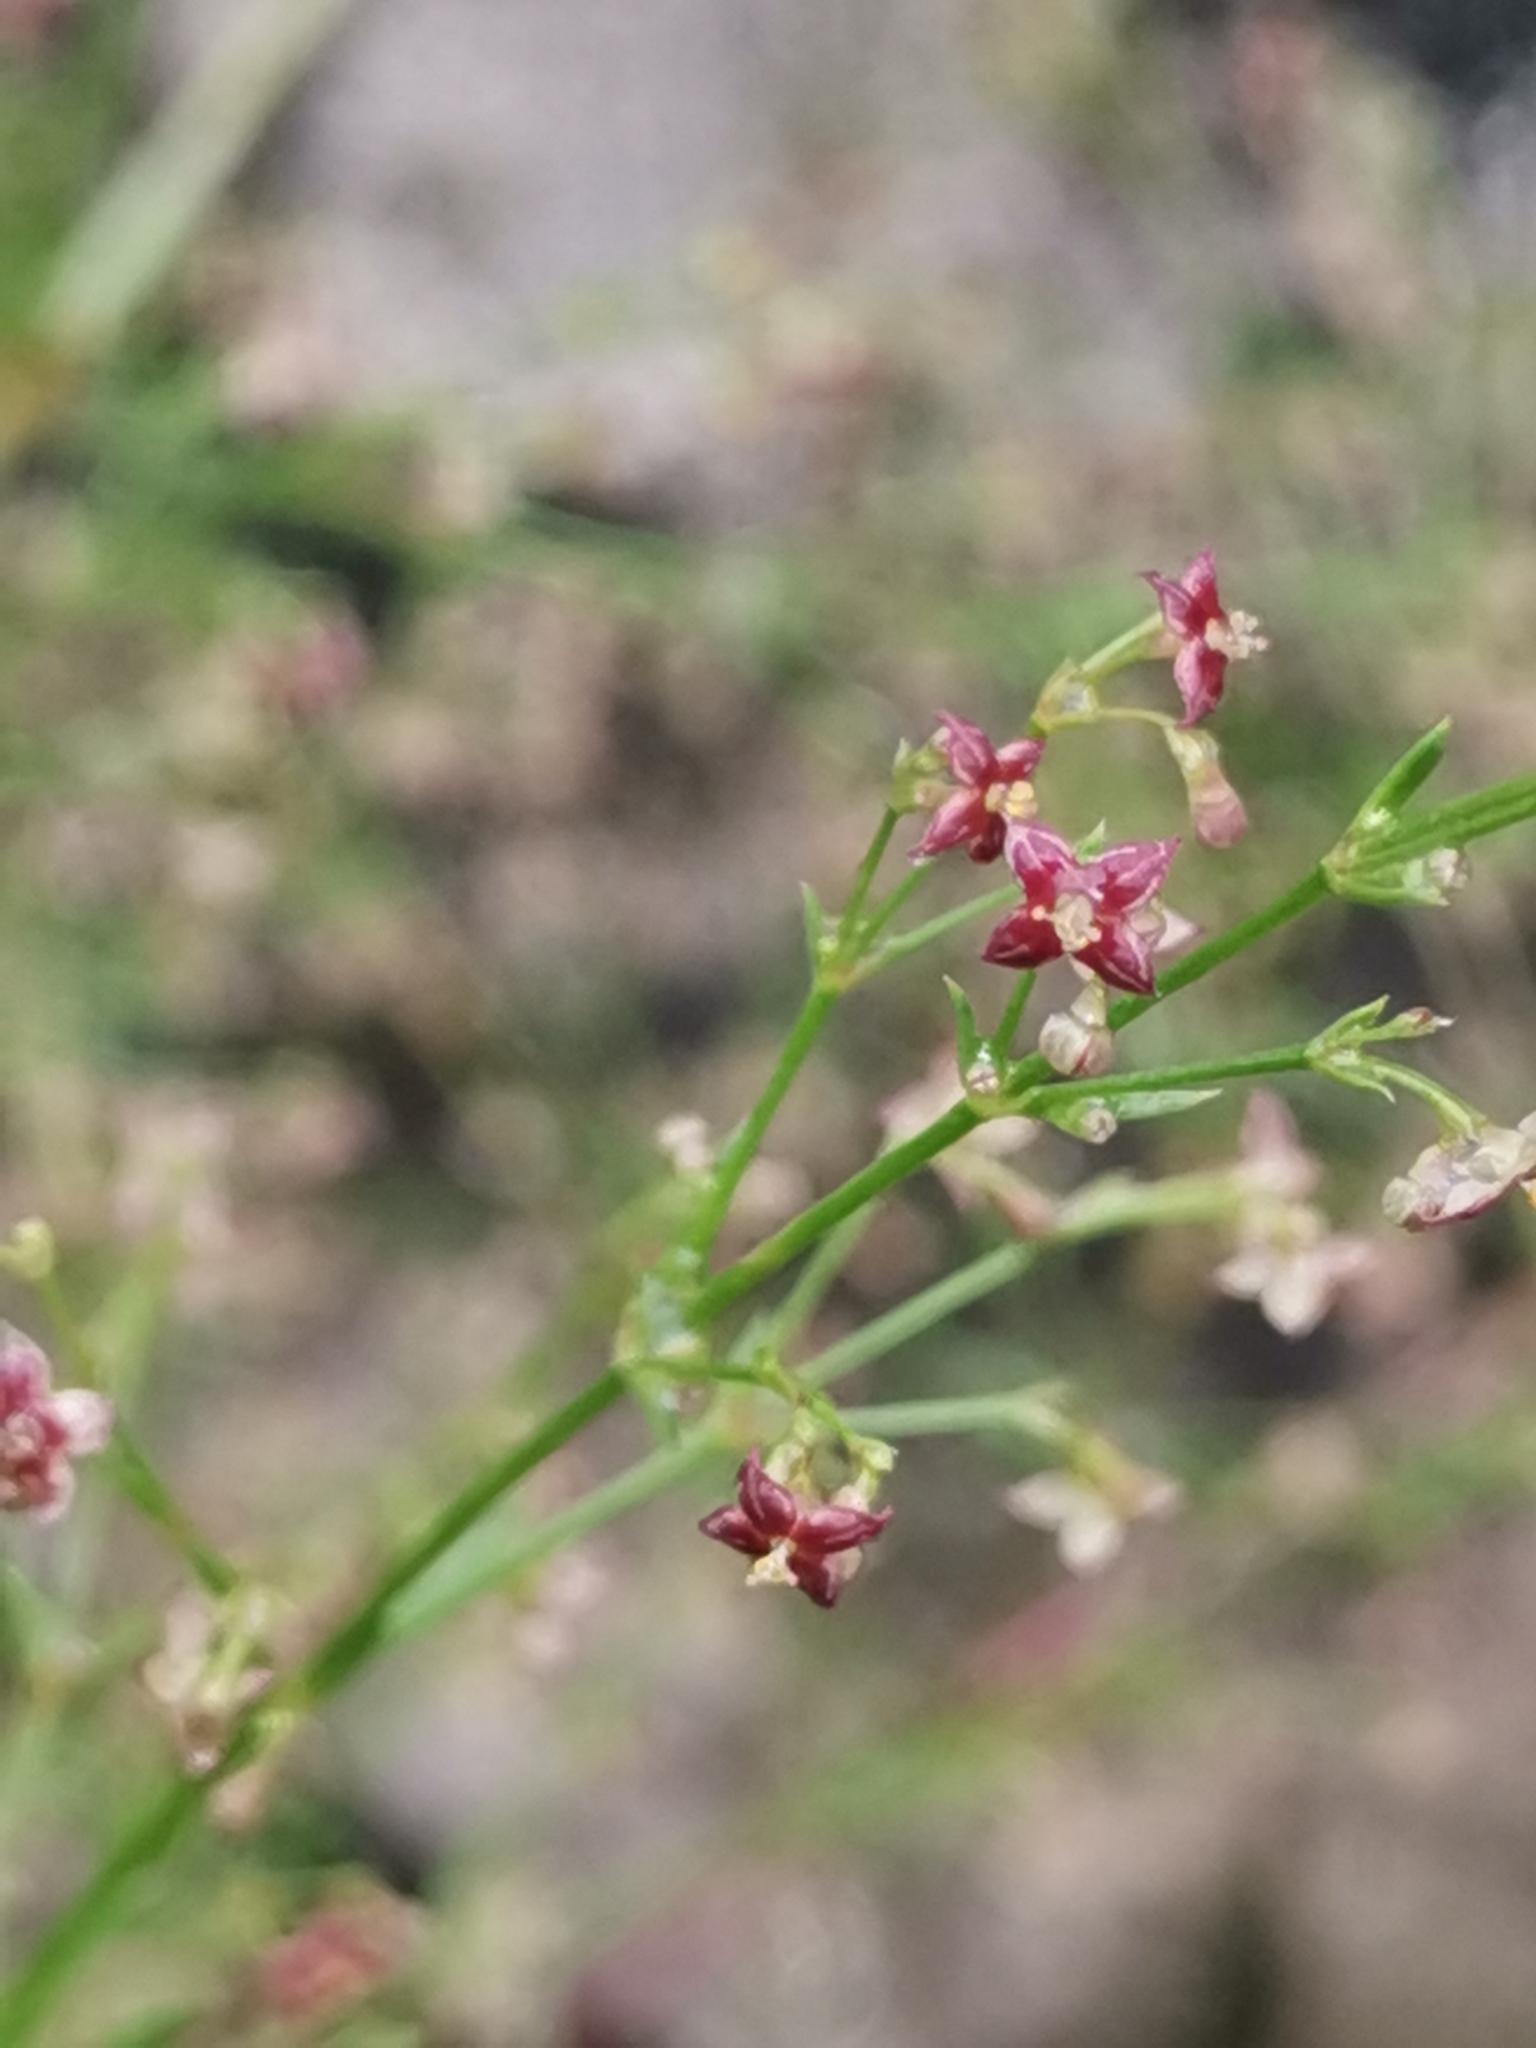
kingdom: Plantae
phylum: Tracheophyta
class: Magnoliopsida
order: Gentianales
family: Rubiaceae
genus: Thliphthisa
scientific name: Thliphthisa purpurea
